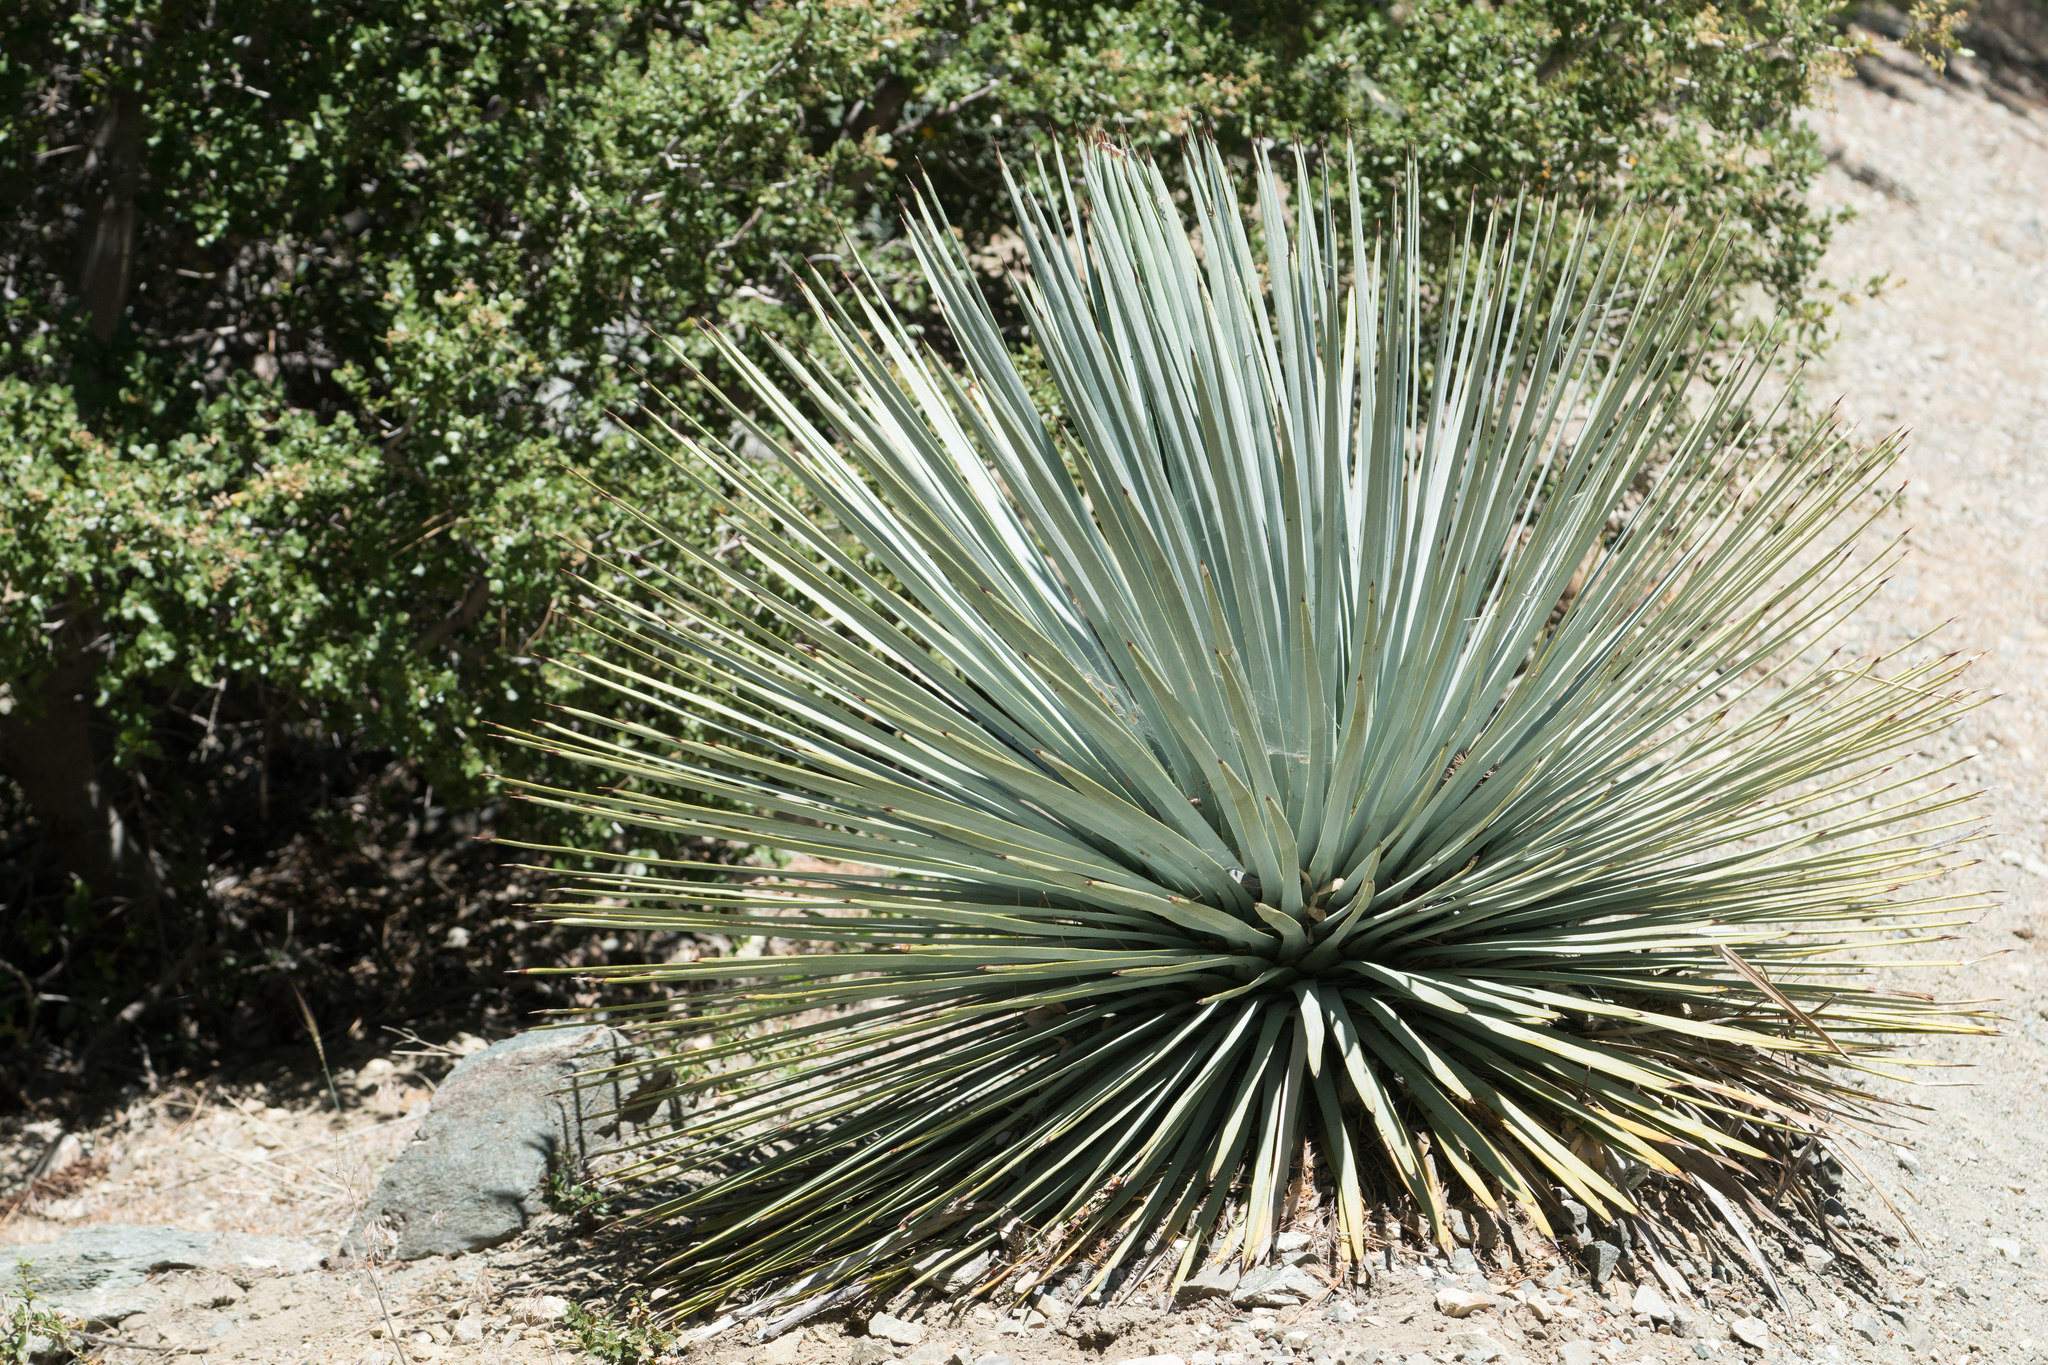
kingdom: Plantae
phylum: Tracheophyta
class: Liliopsida
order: Asparagales
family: Asparagaceae
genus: Hesperoyucca
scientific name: Hesperoyucca whipplei
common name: Our lord's-candle
